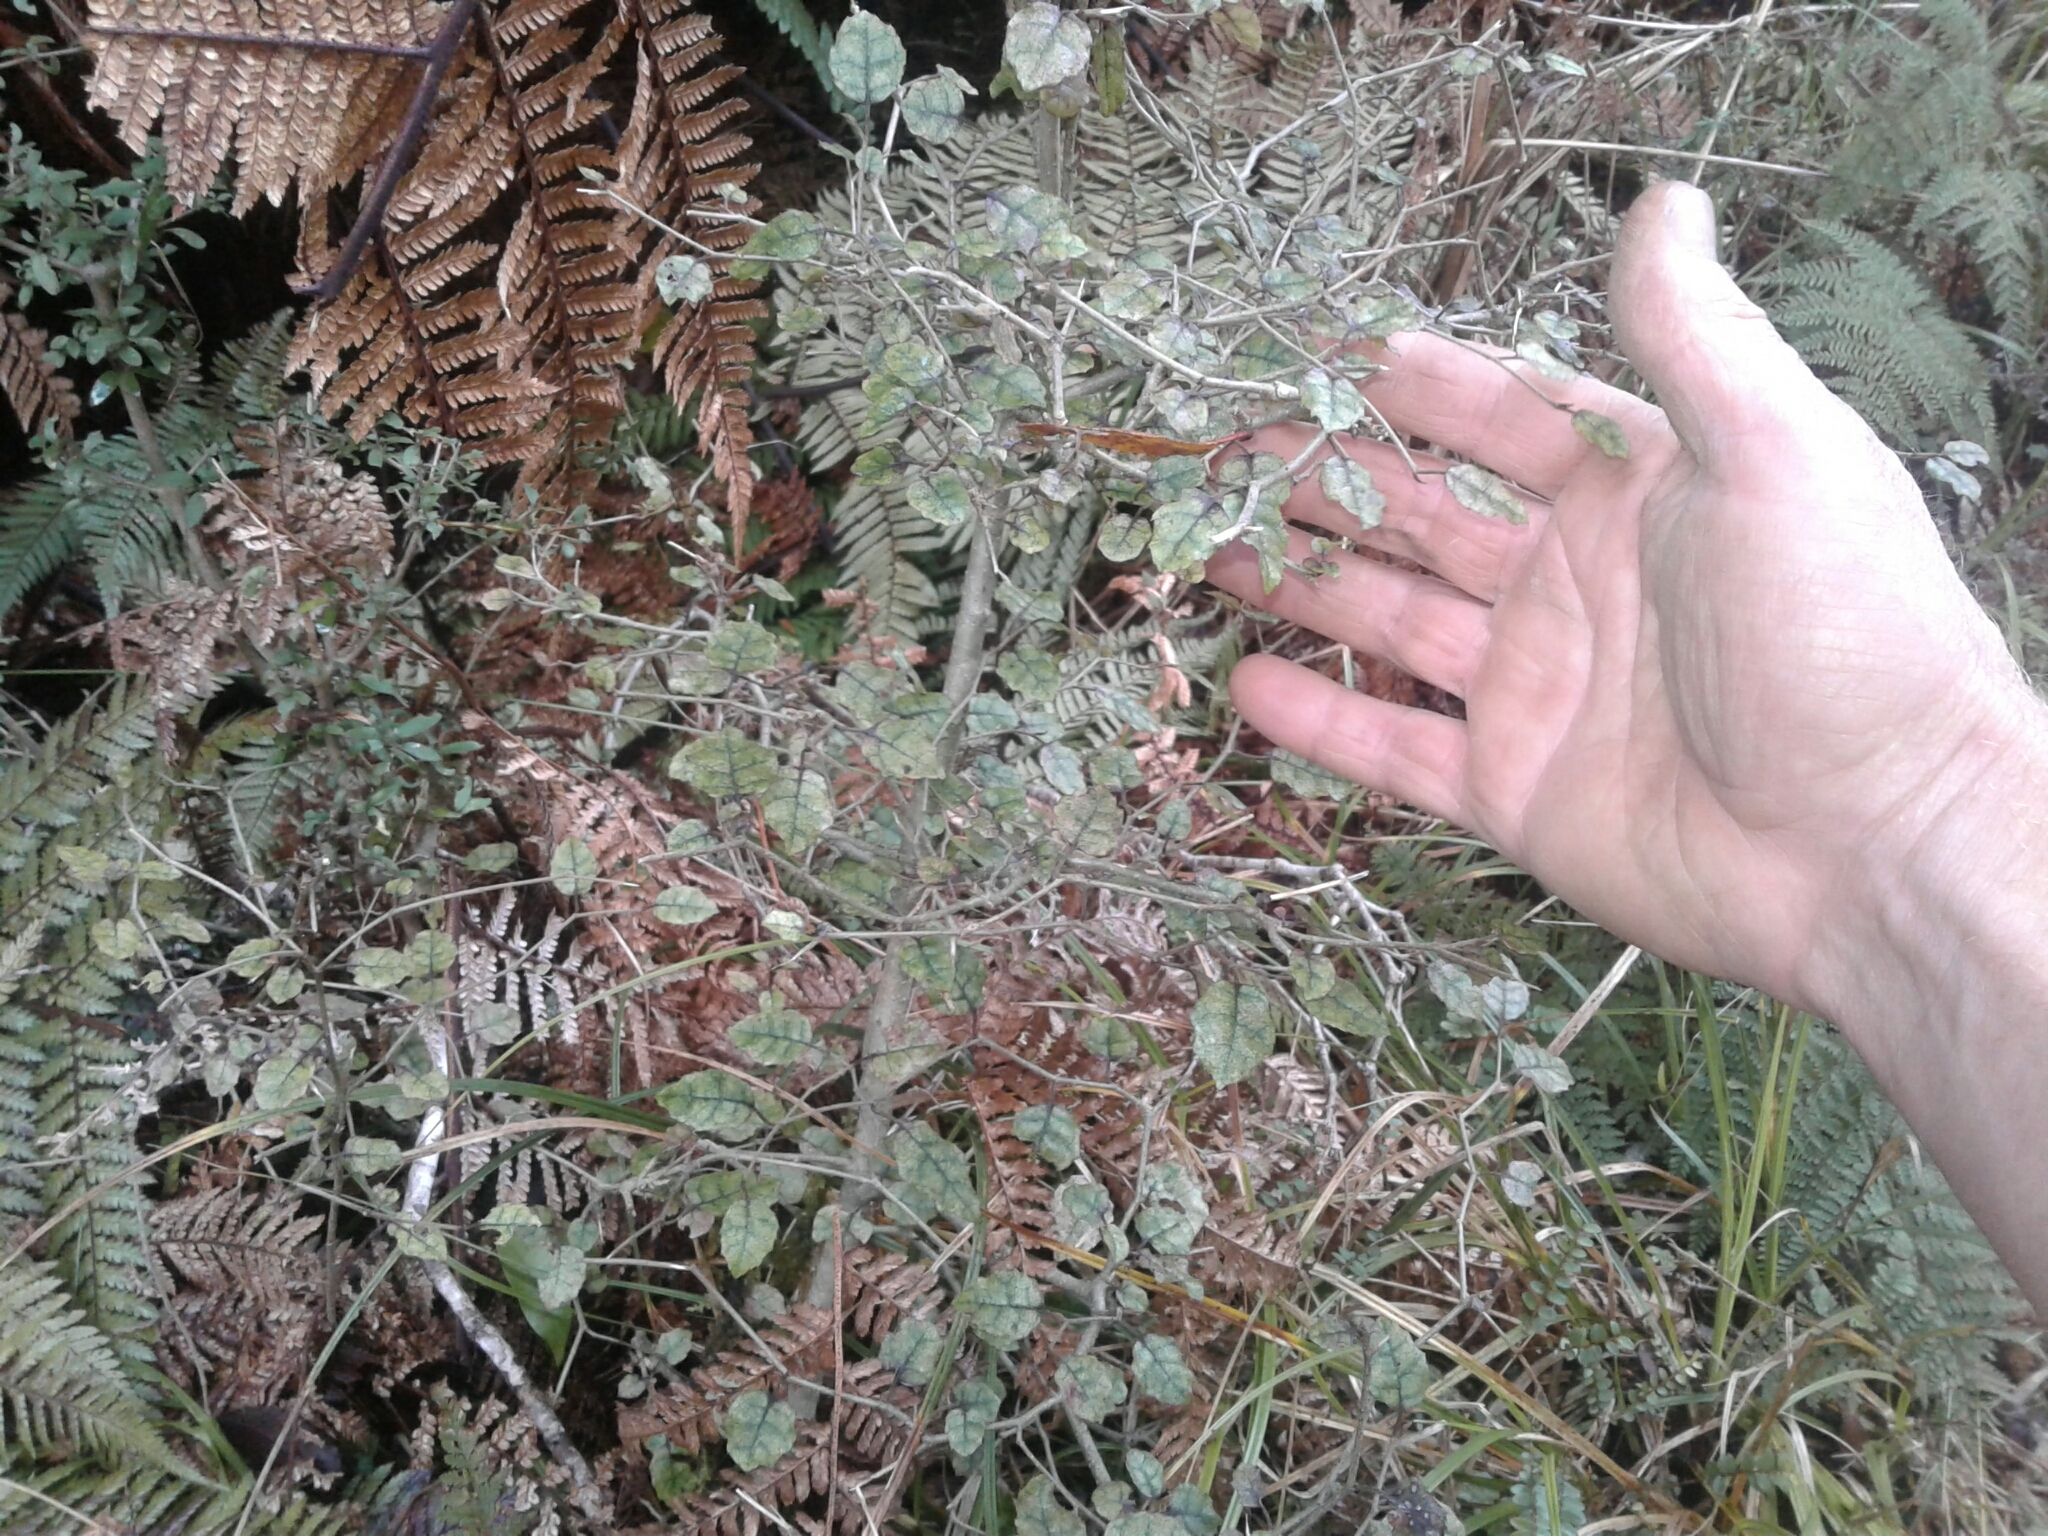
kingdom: Plantae
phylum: Tracheophyta
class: Magnoliopsida
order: Asterales
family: Rousseaceae
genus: Carpodetus
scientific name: Carpodetus serratus
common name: White mapau
